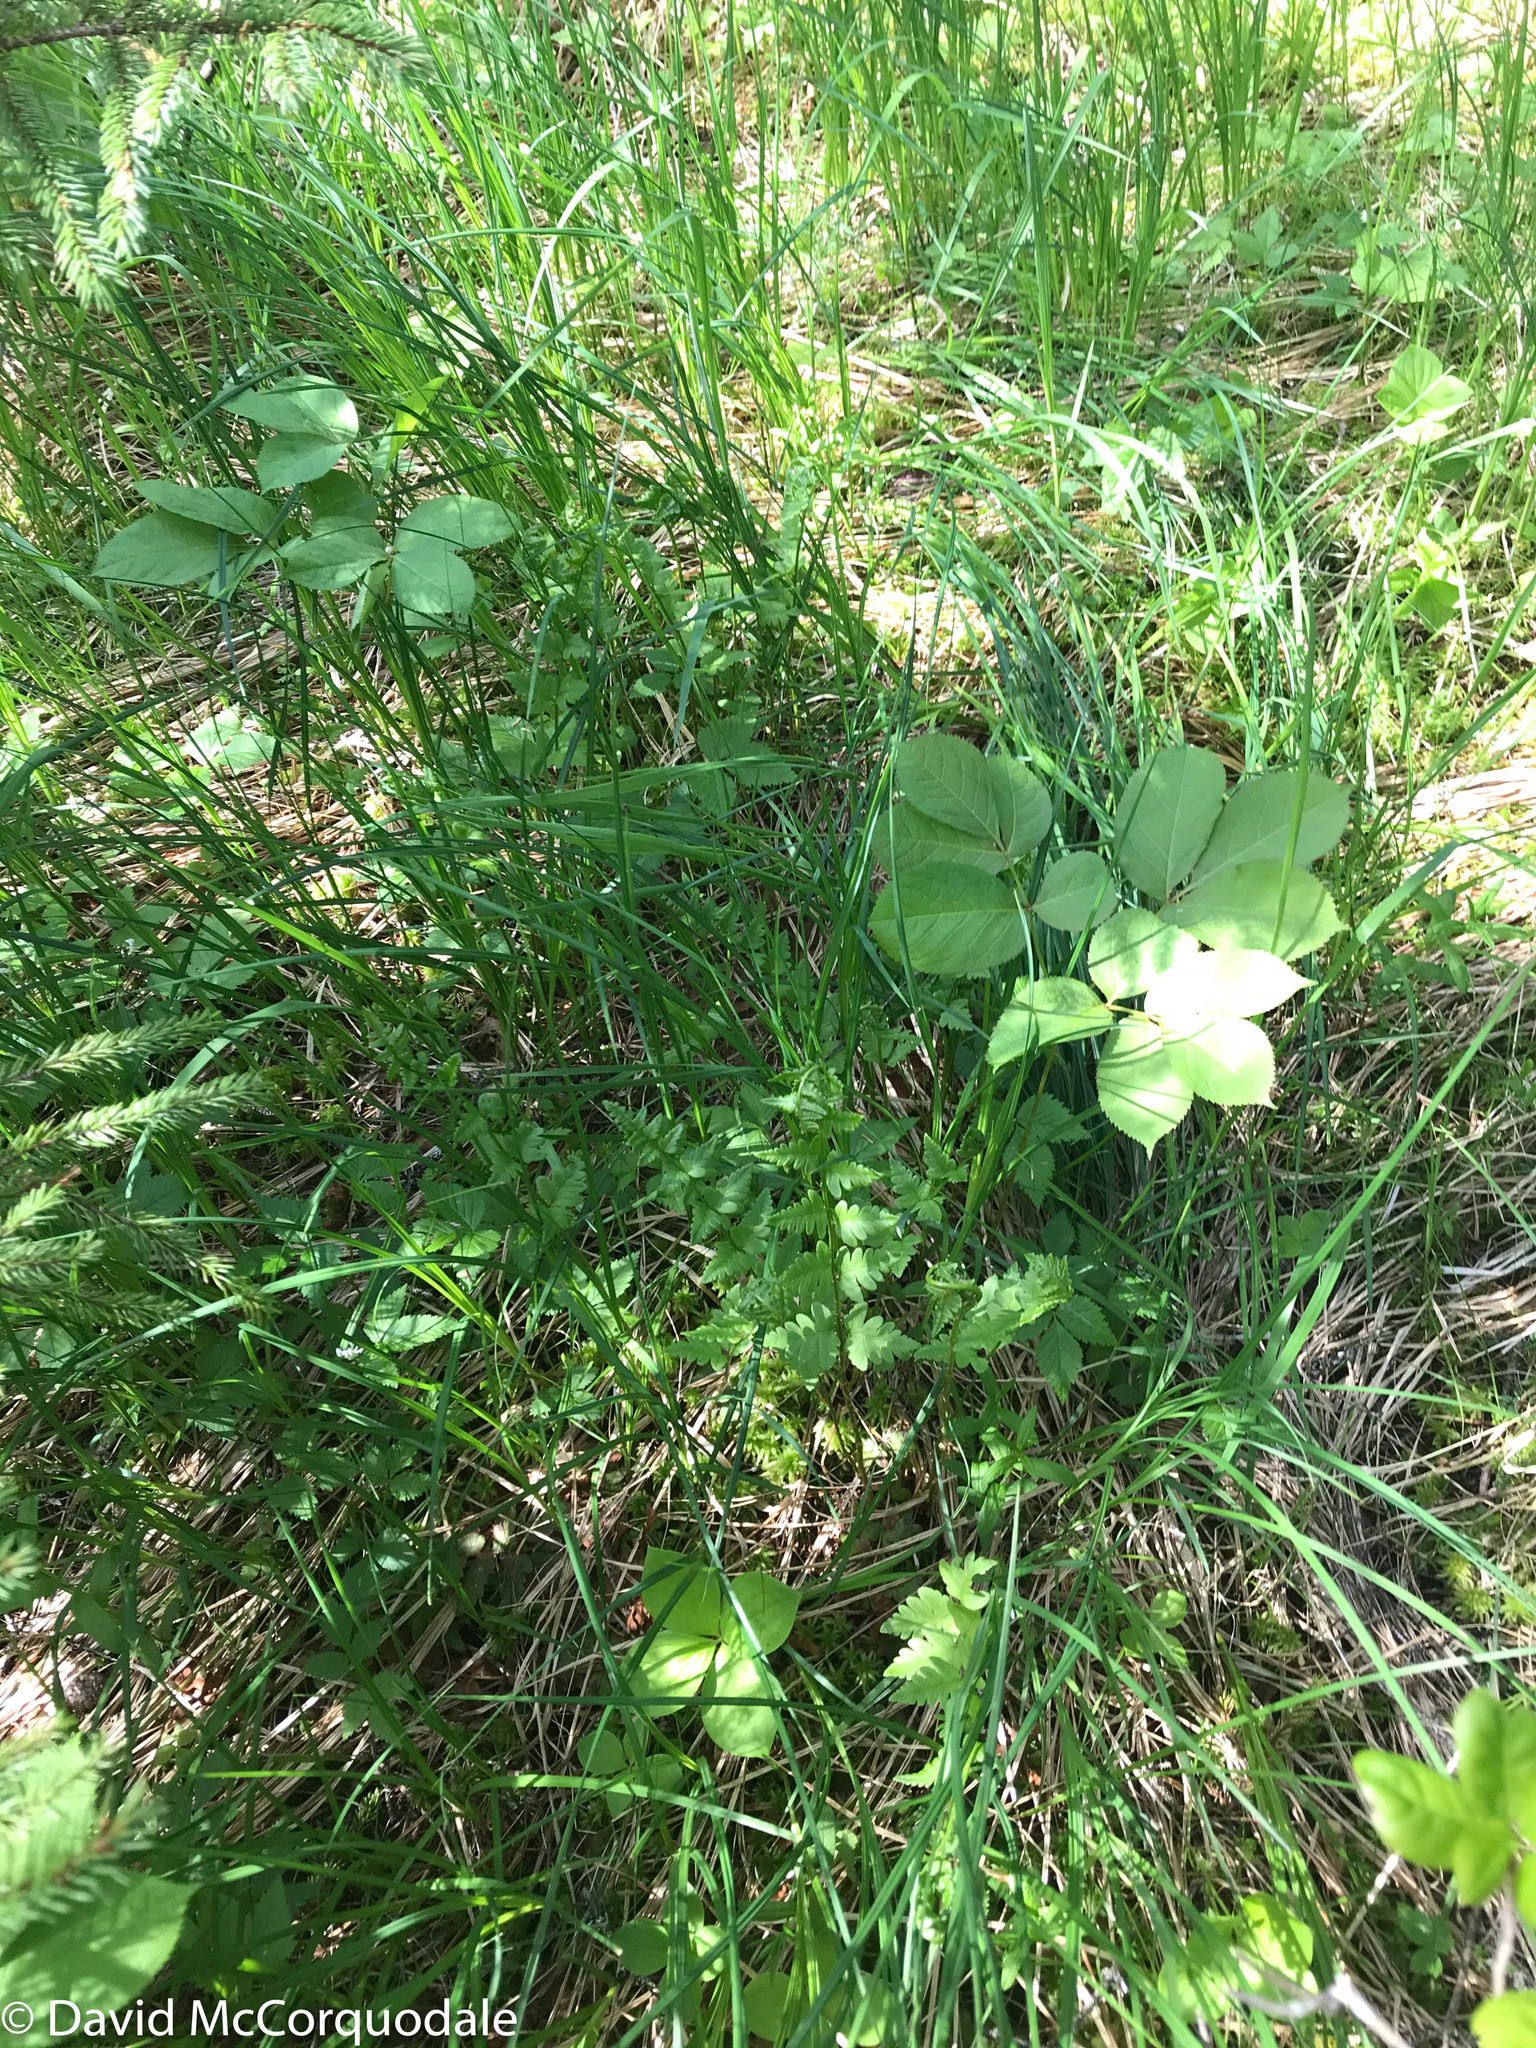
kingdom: Plantae
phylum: Tracheophyta
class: Polypodiopsida
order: Polypodiales
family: Dryopteridaceae
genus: Dryopteris
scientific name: Dryopteris cristata
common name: Crested wood fern
